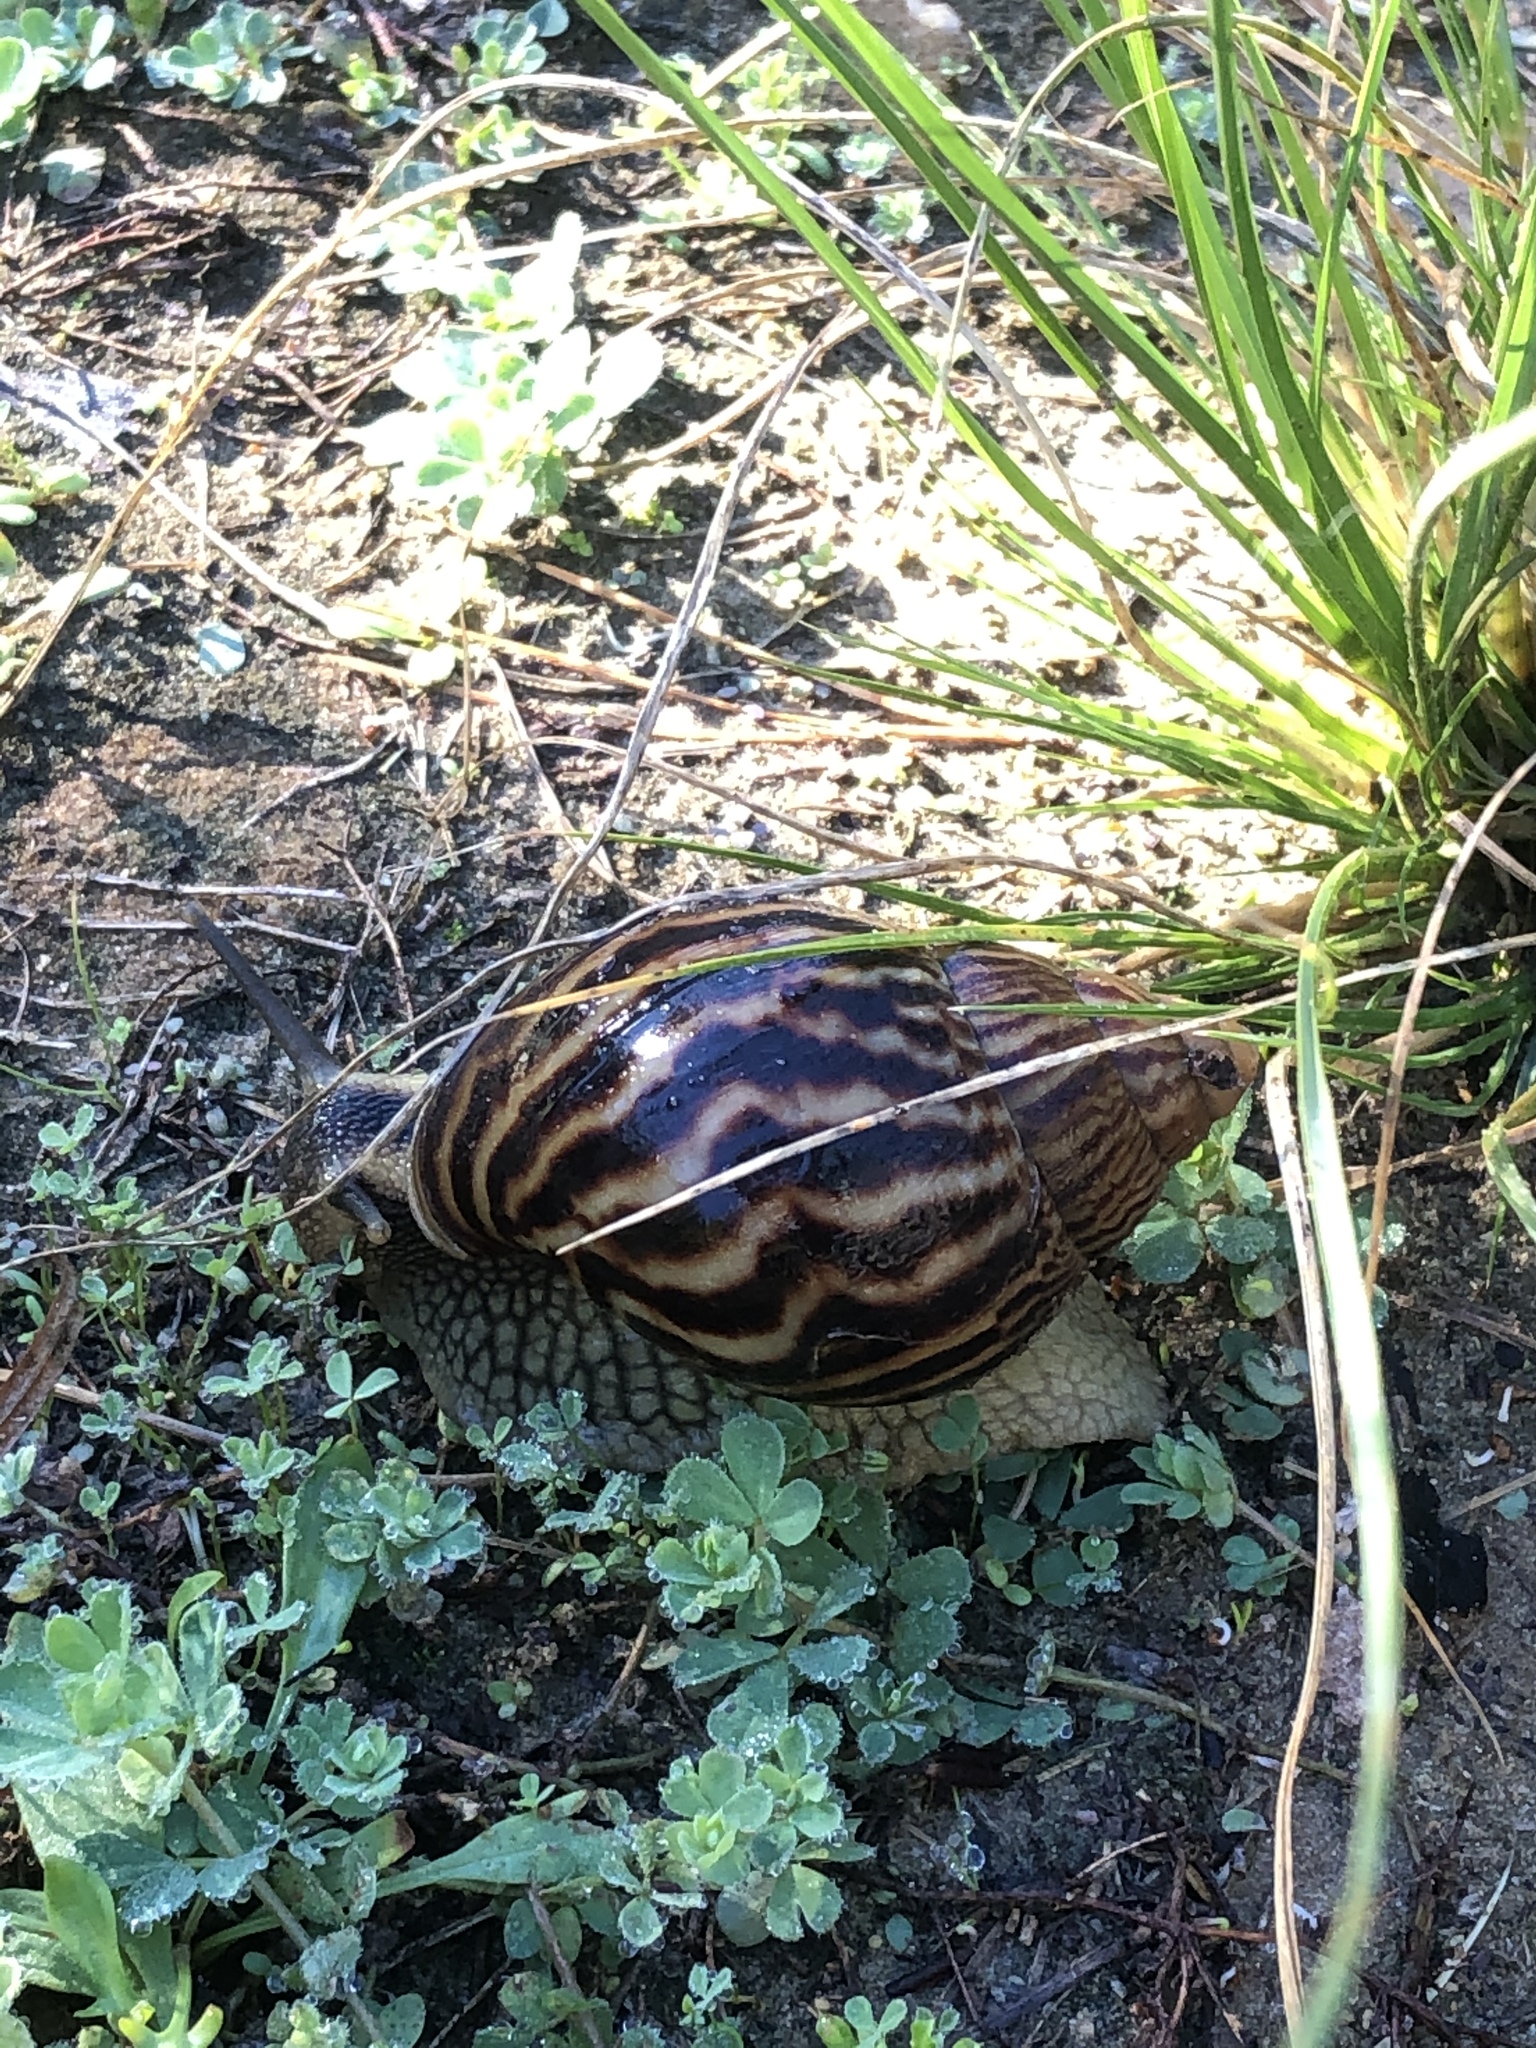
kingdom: Animalia
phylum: Mollusca
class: Gastropoda
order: Stylommatophora
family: Achatinidae
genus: Cochlitoma
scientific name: Cochlitoma zebra
